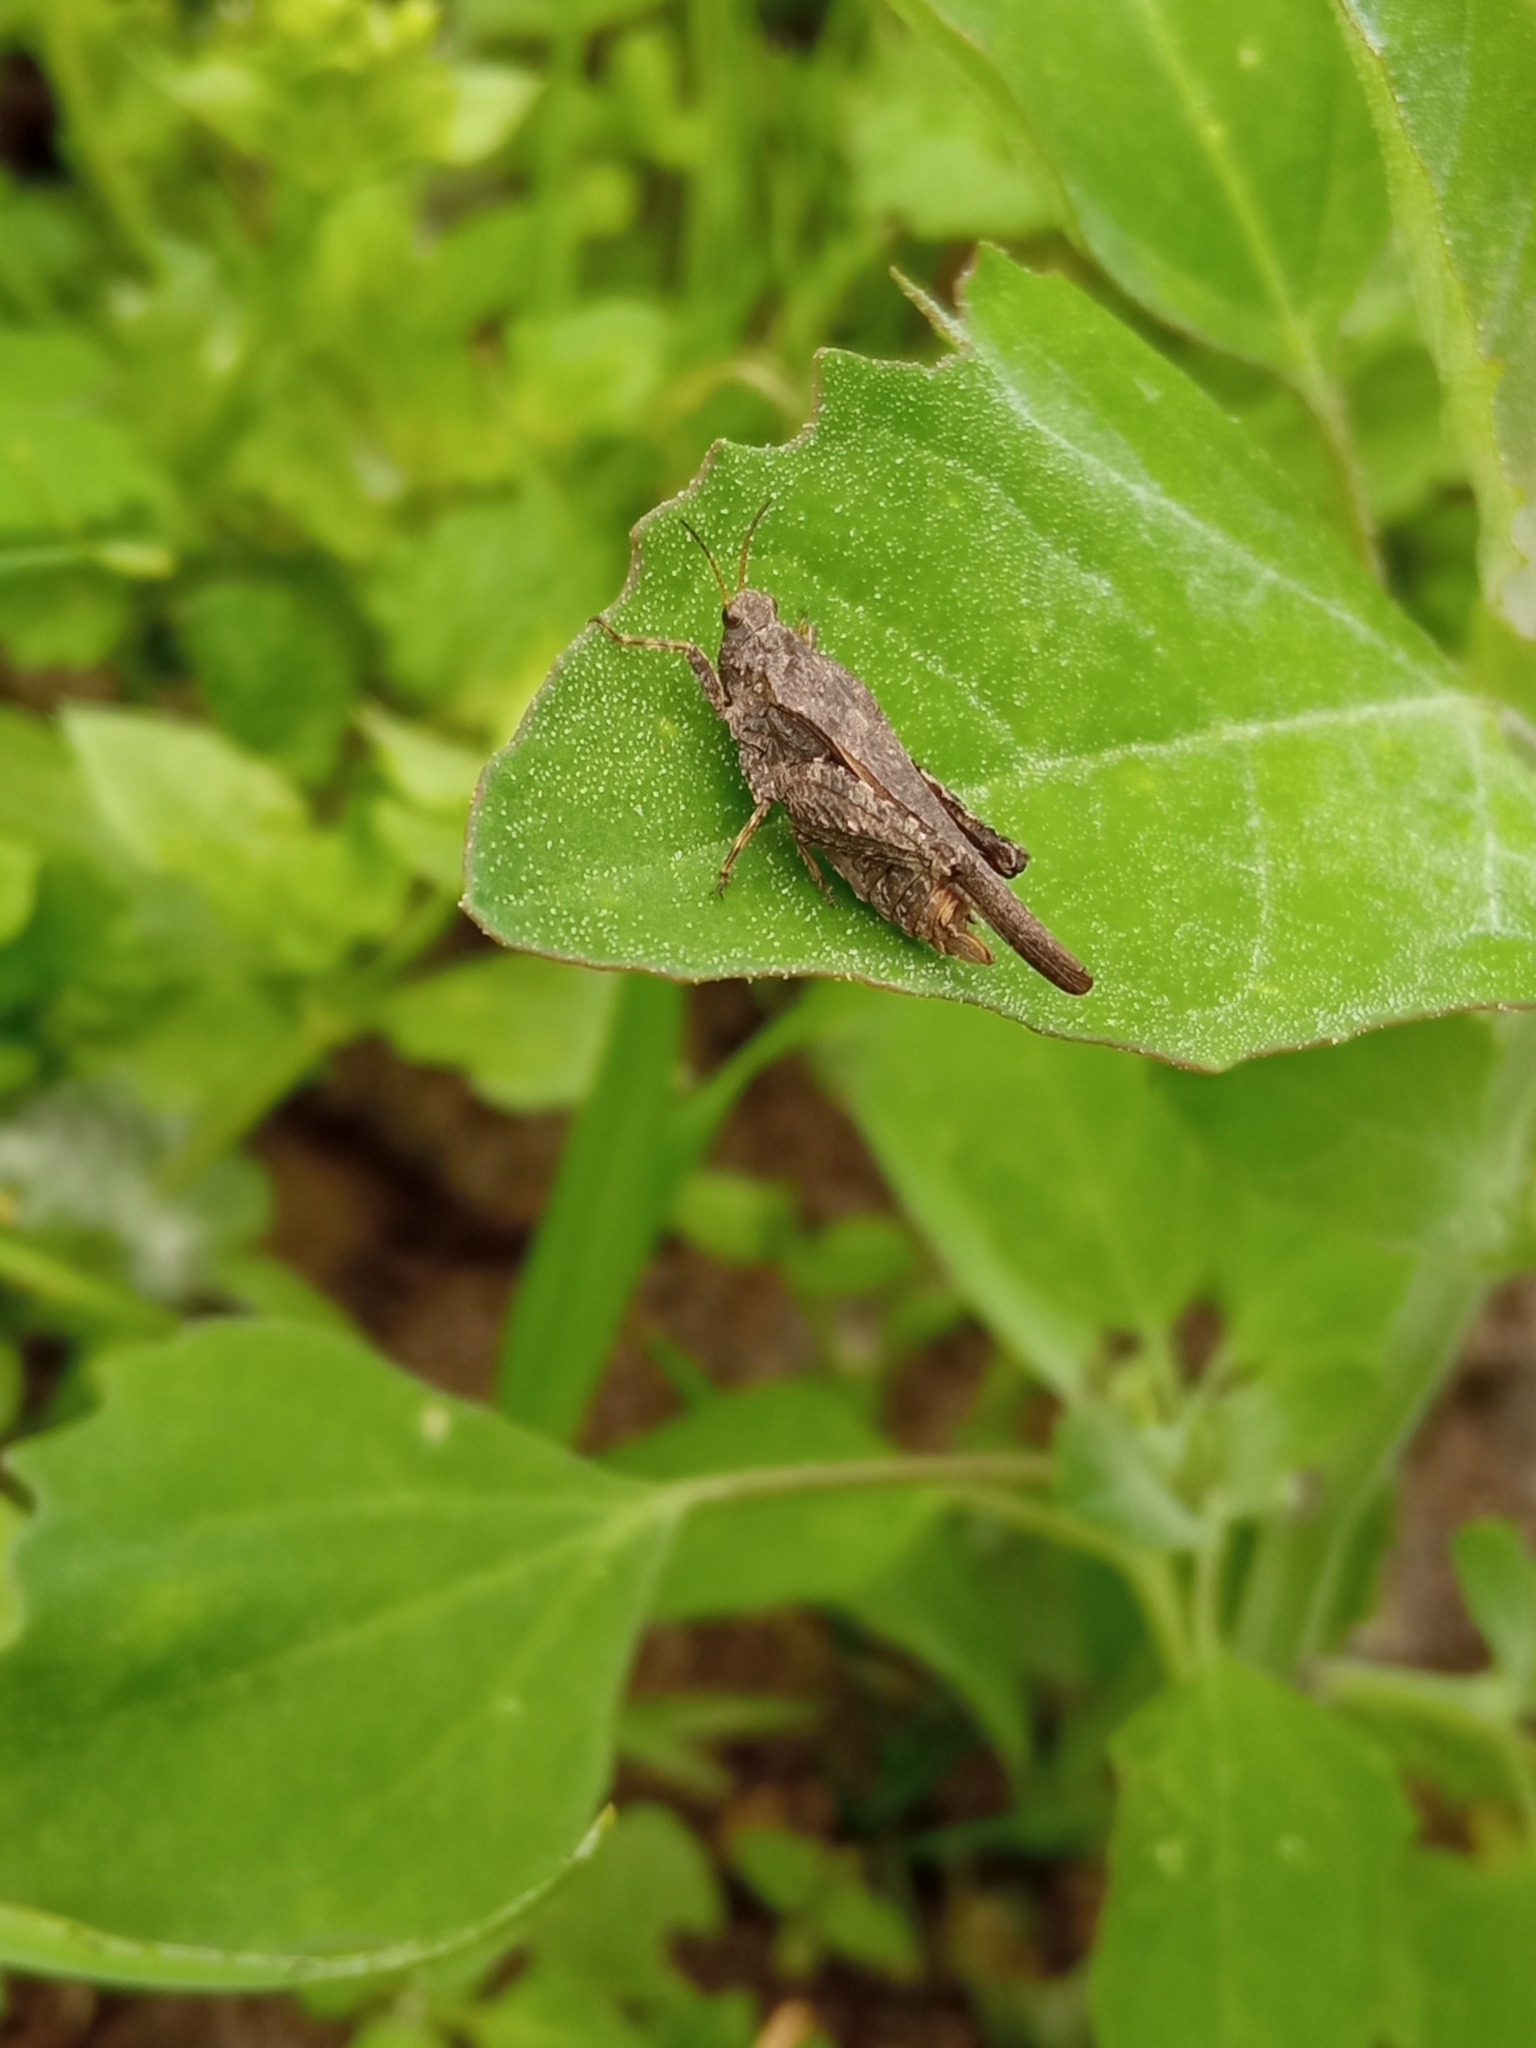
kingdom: Animalia
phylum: Arthropoda
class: Insecta
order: Orthoptera
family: Tetrigidae
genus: Tetrix
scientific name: Tetrix subulata
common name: Slender ground-hopper
